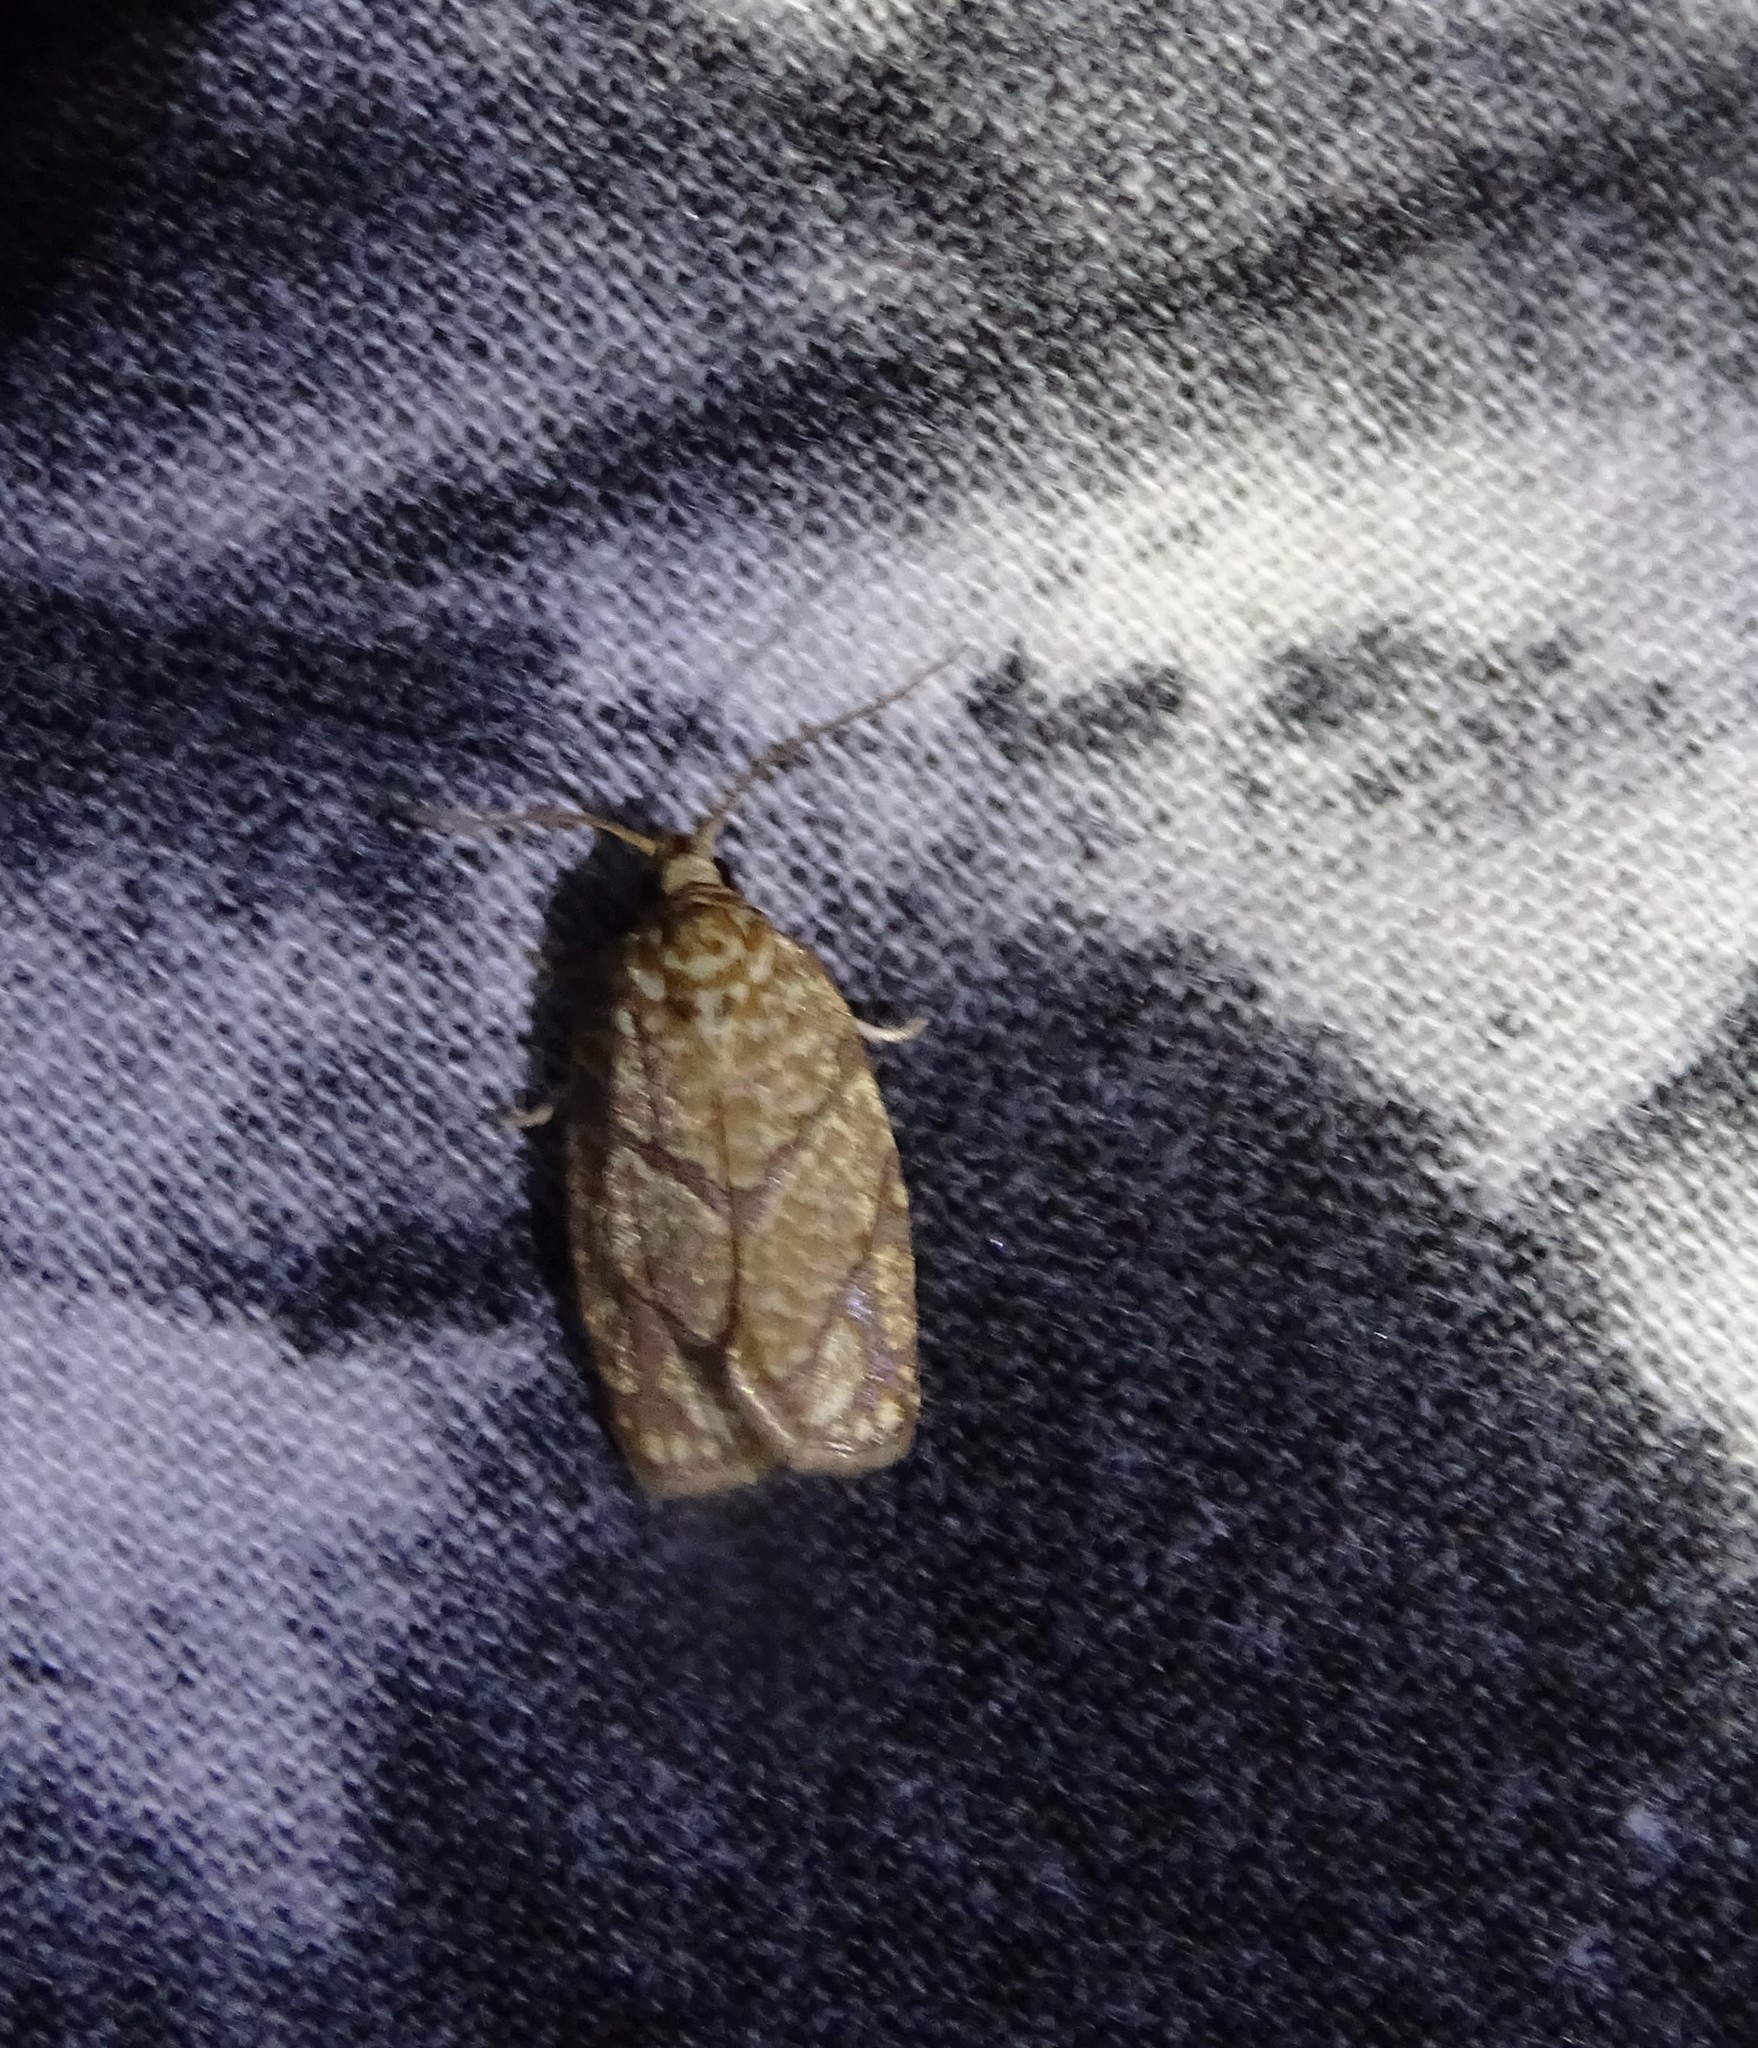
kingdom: Animalia
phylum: Arthropoda
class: Insecta
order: Lepidoptera
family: Tortricidae
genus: Argyrotaenia
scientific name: Argyrotaenia quercifoliana
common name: Yellow-winged oak leafroller moth
